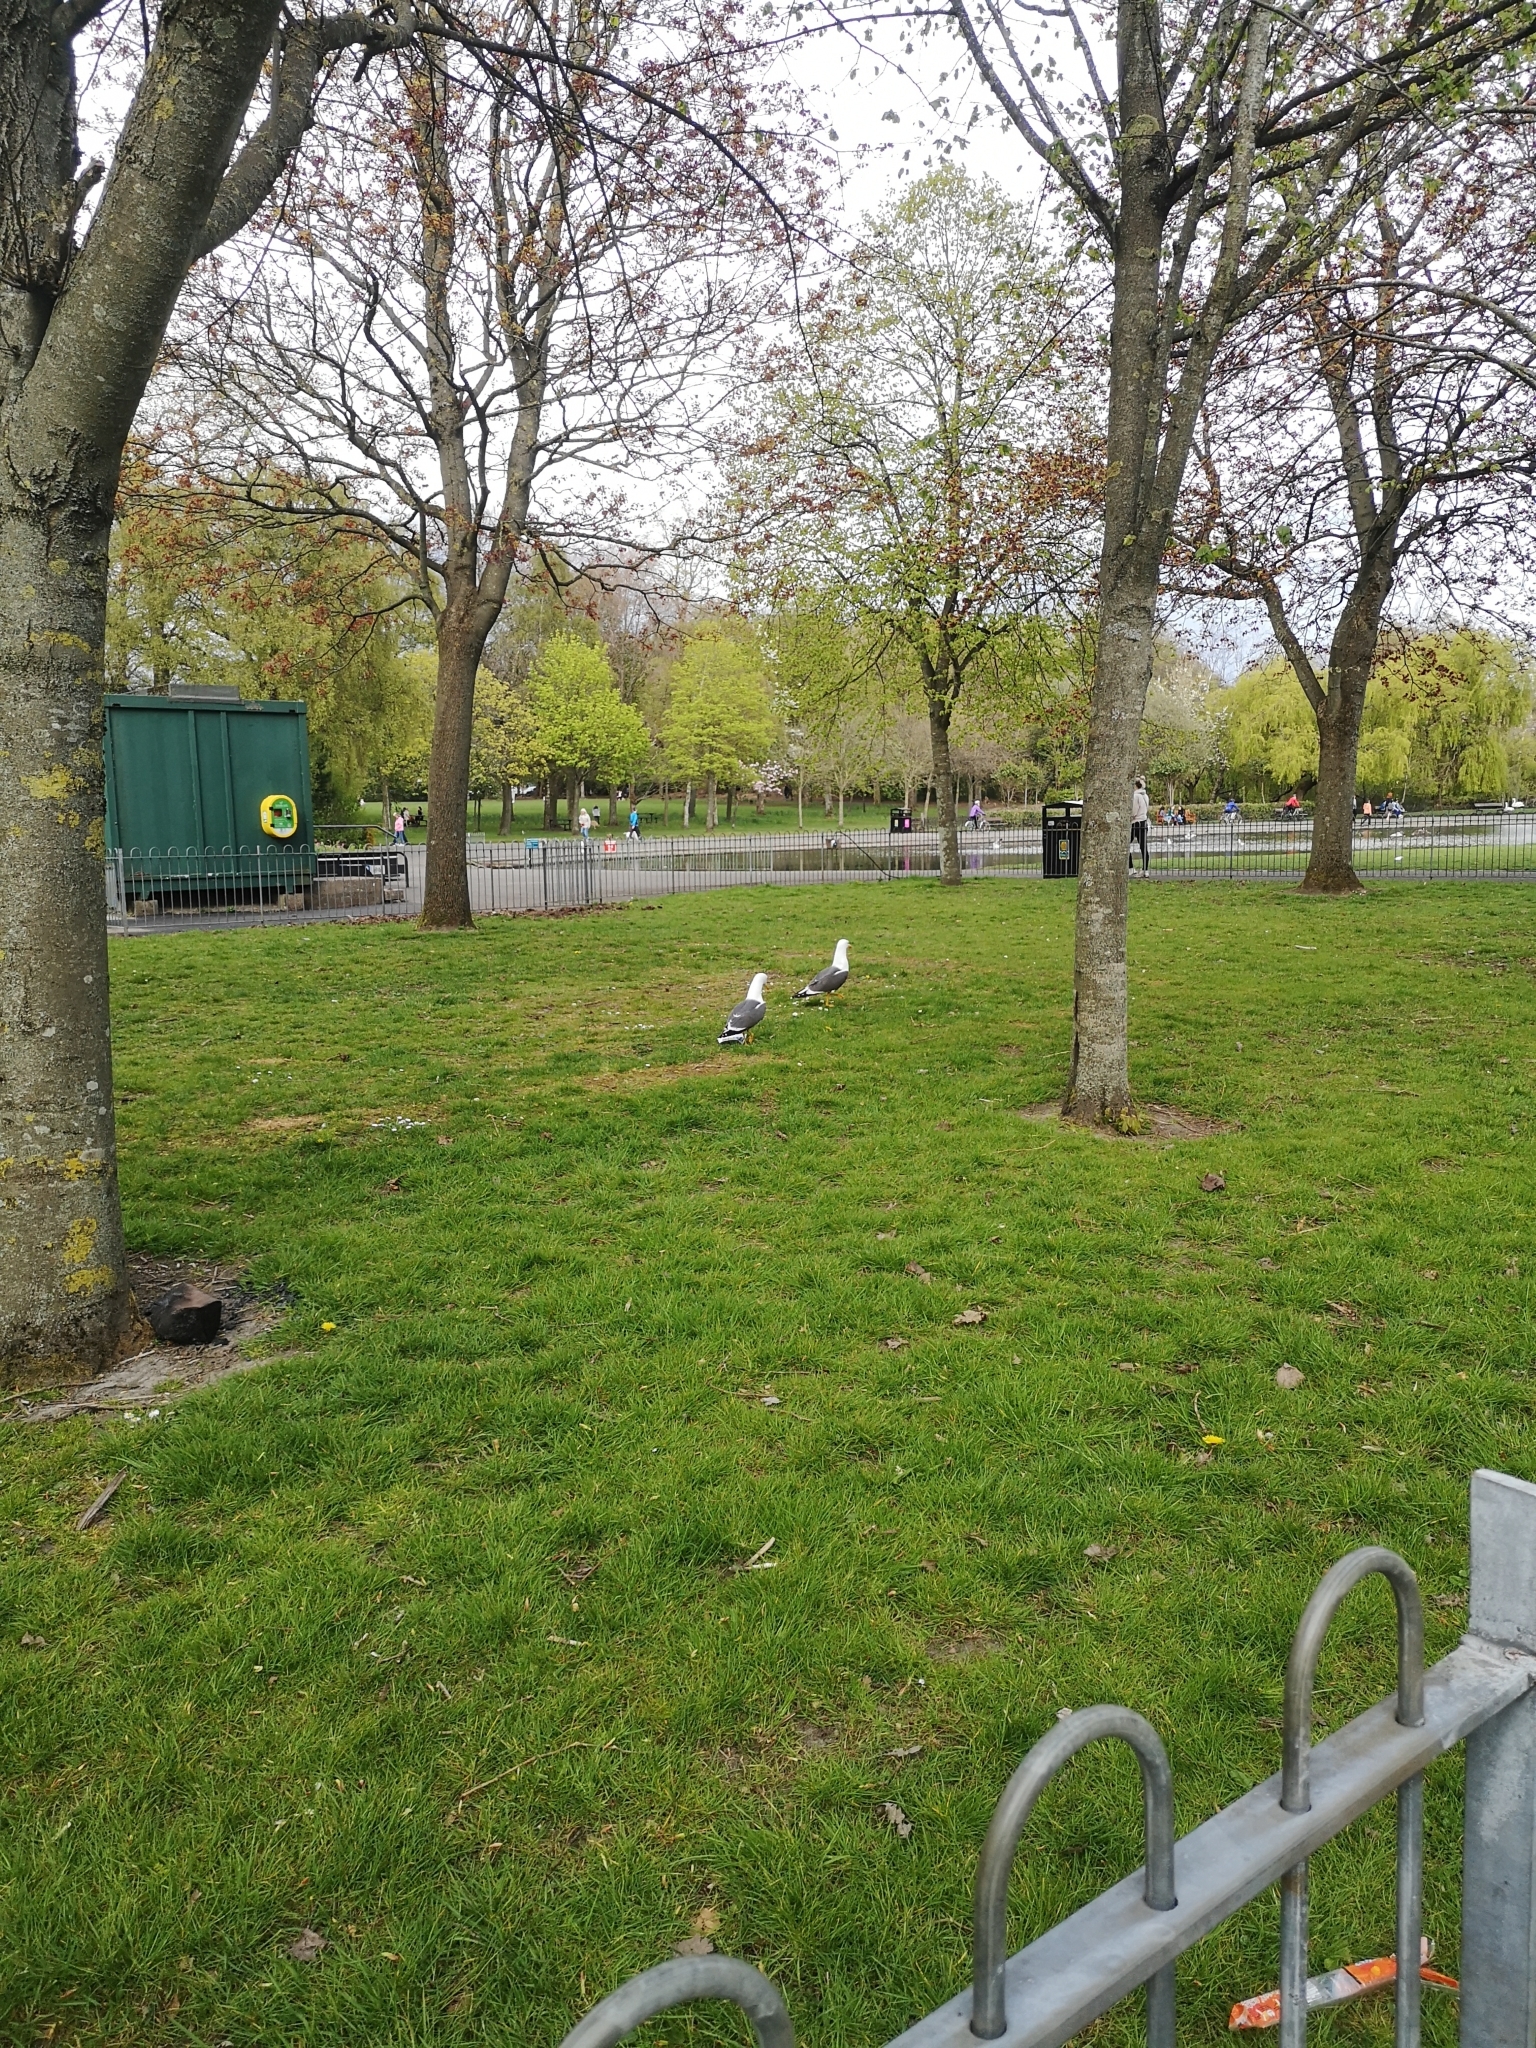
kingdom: Animalia
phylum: Chordata
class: Aves
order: Charadriiformes
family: Laridae
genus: Larus
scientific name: Larus fuscus
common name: Lesser black-backed gull
